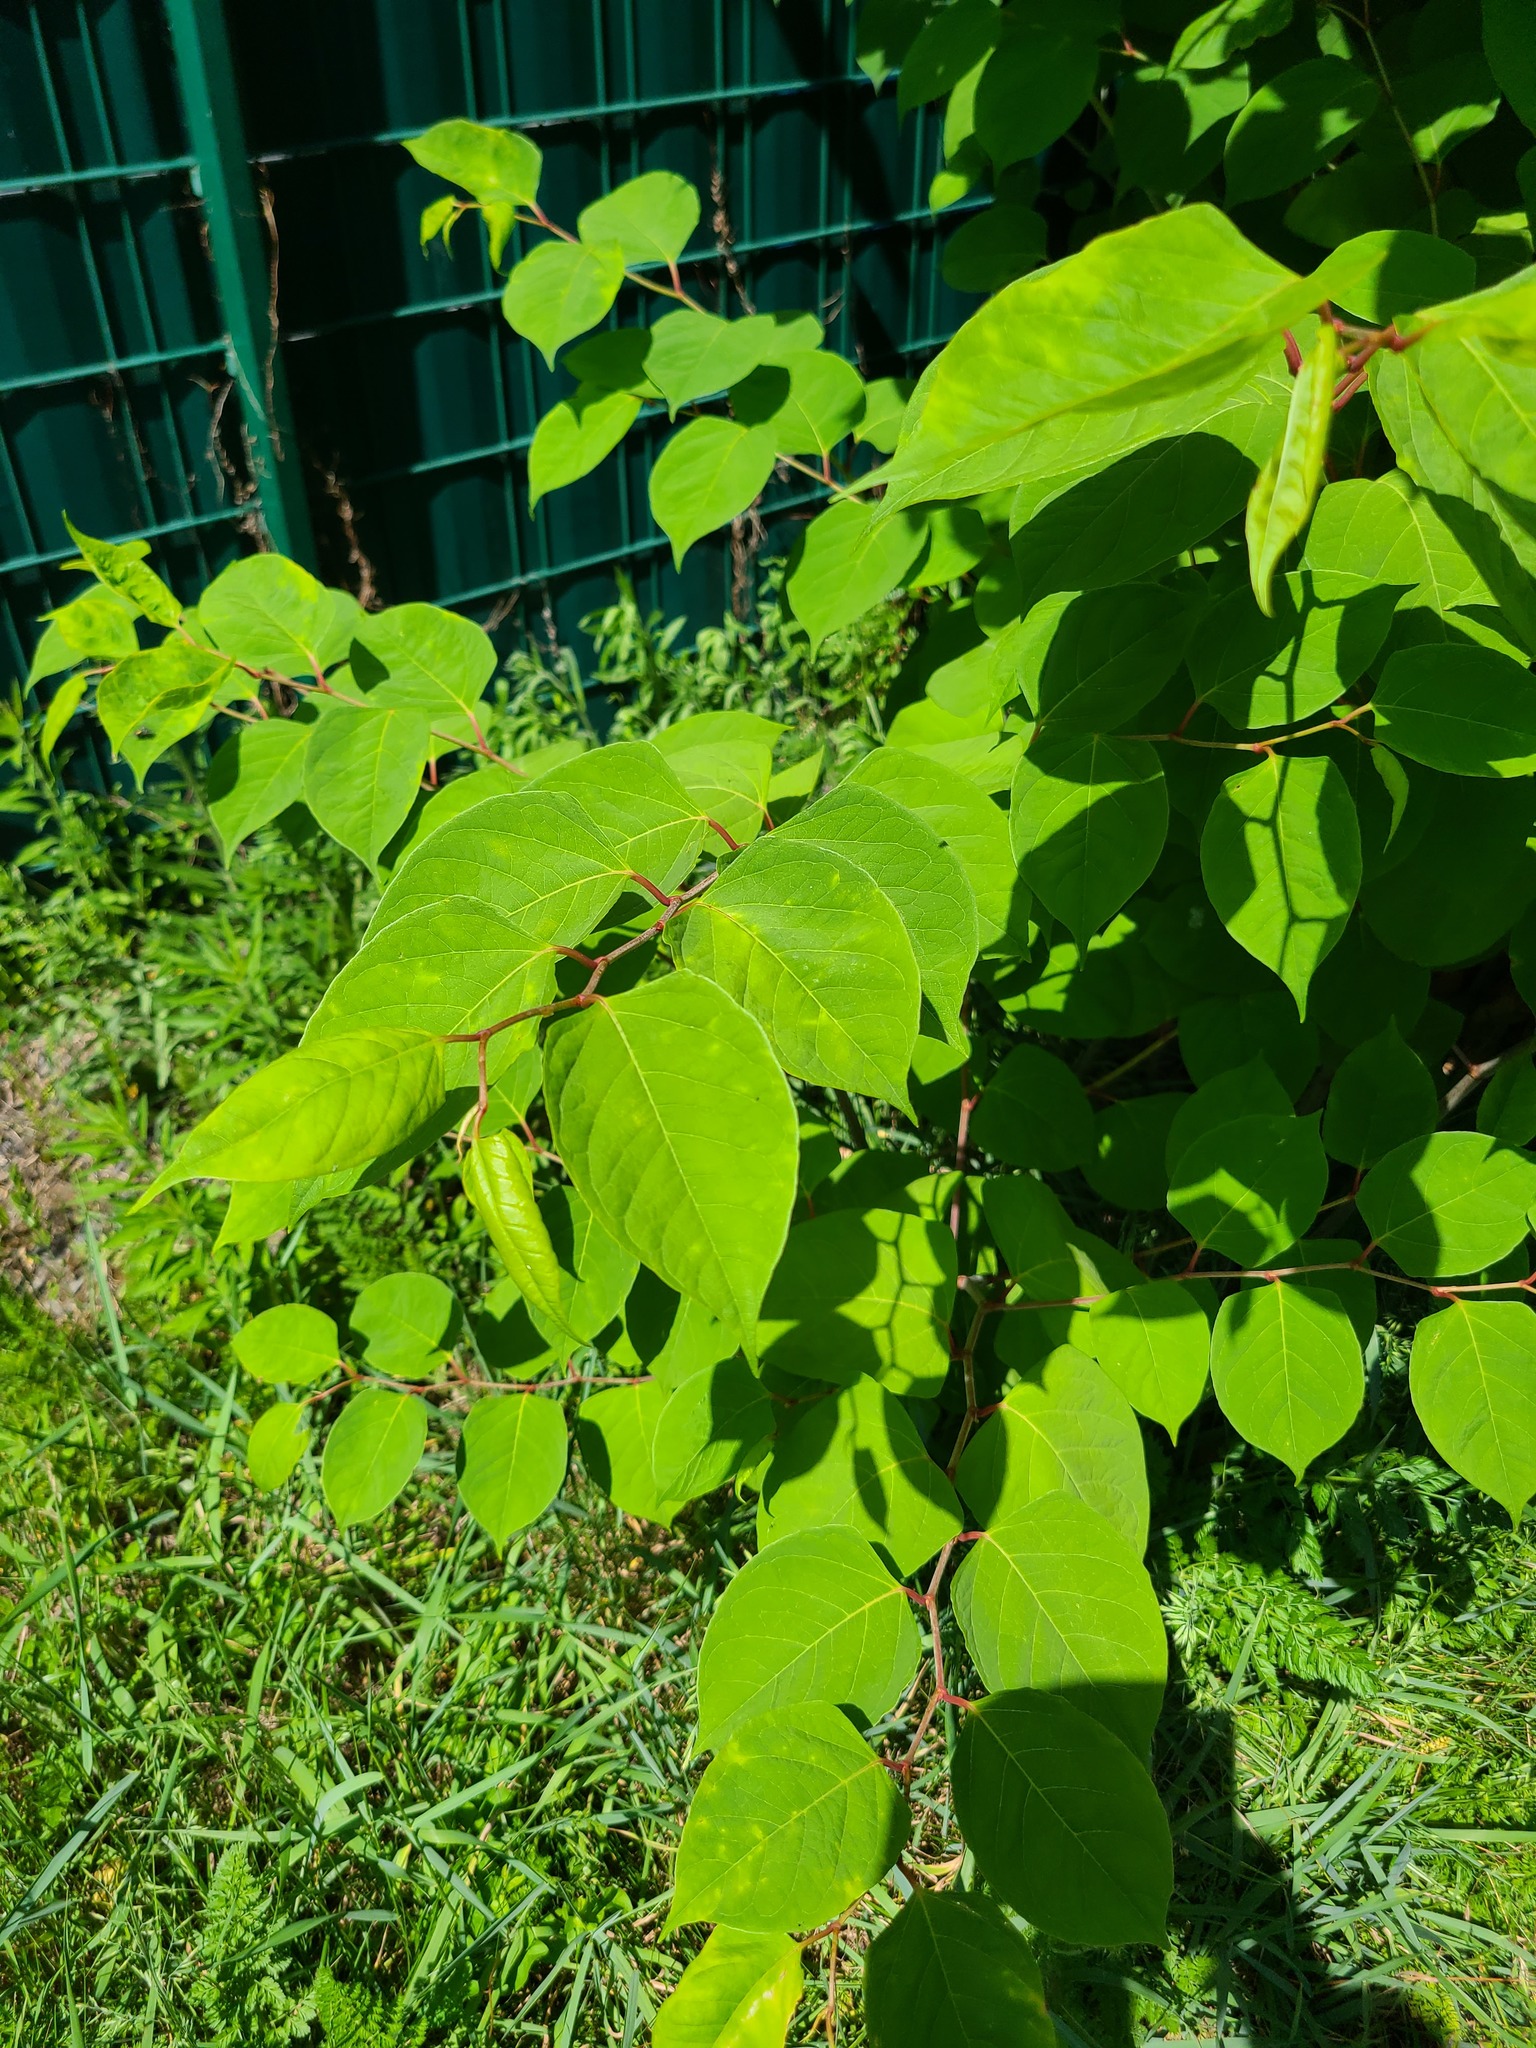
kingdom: Plantae
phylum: Tracheophyta
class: Magnoliopsida
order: Caryophyllales
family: Polygonaceae
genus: Reynoutria
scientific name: Reynoutria japonica
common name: Japanese knotweed
